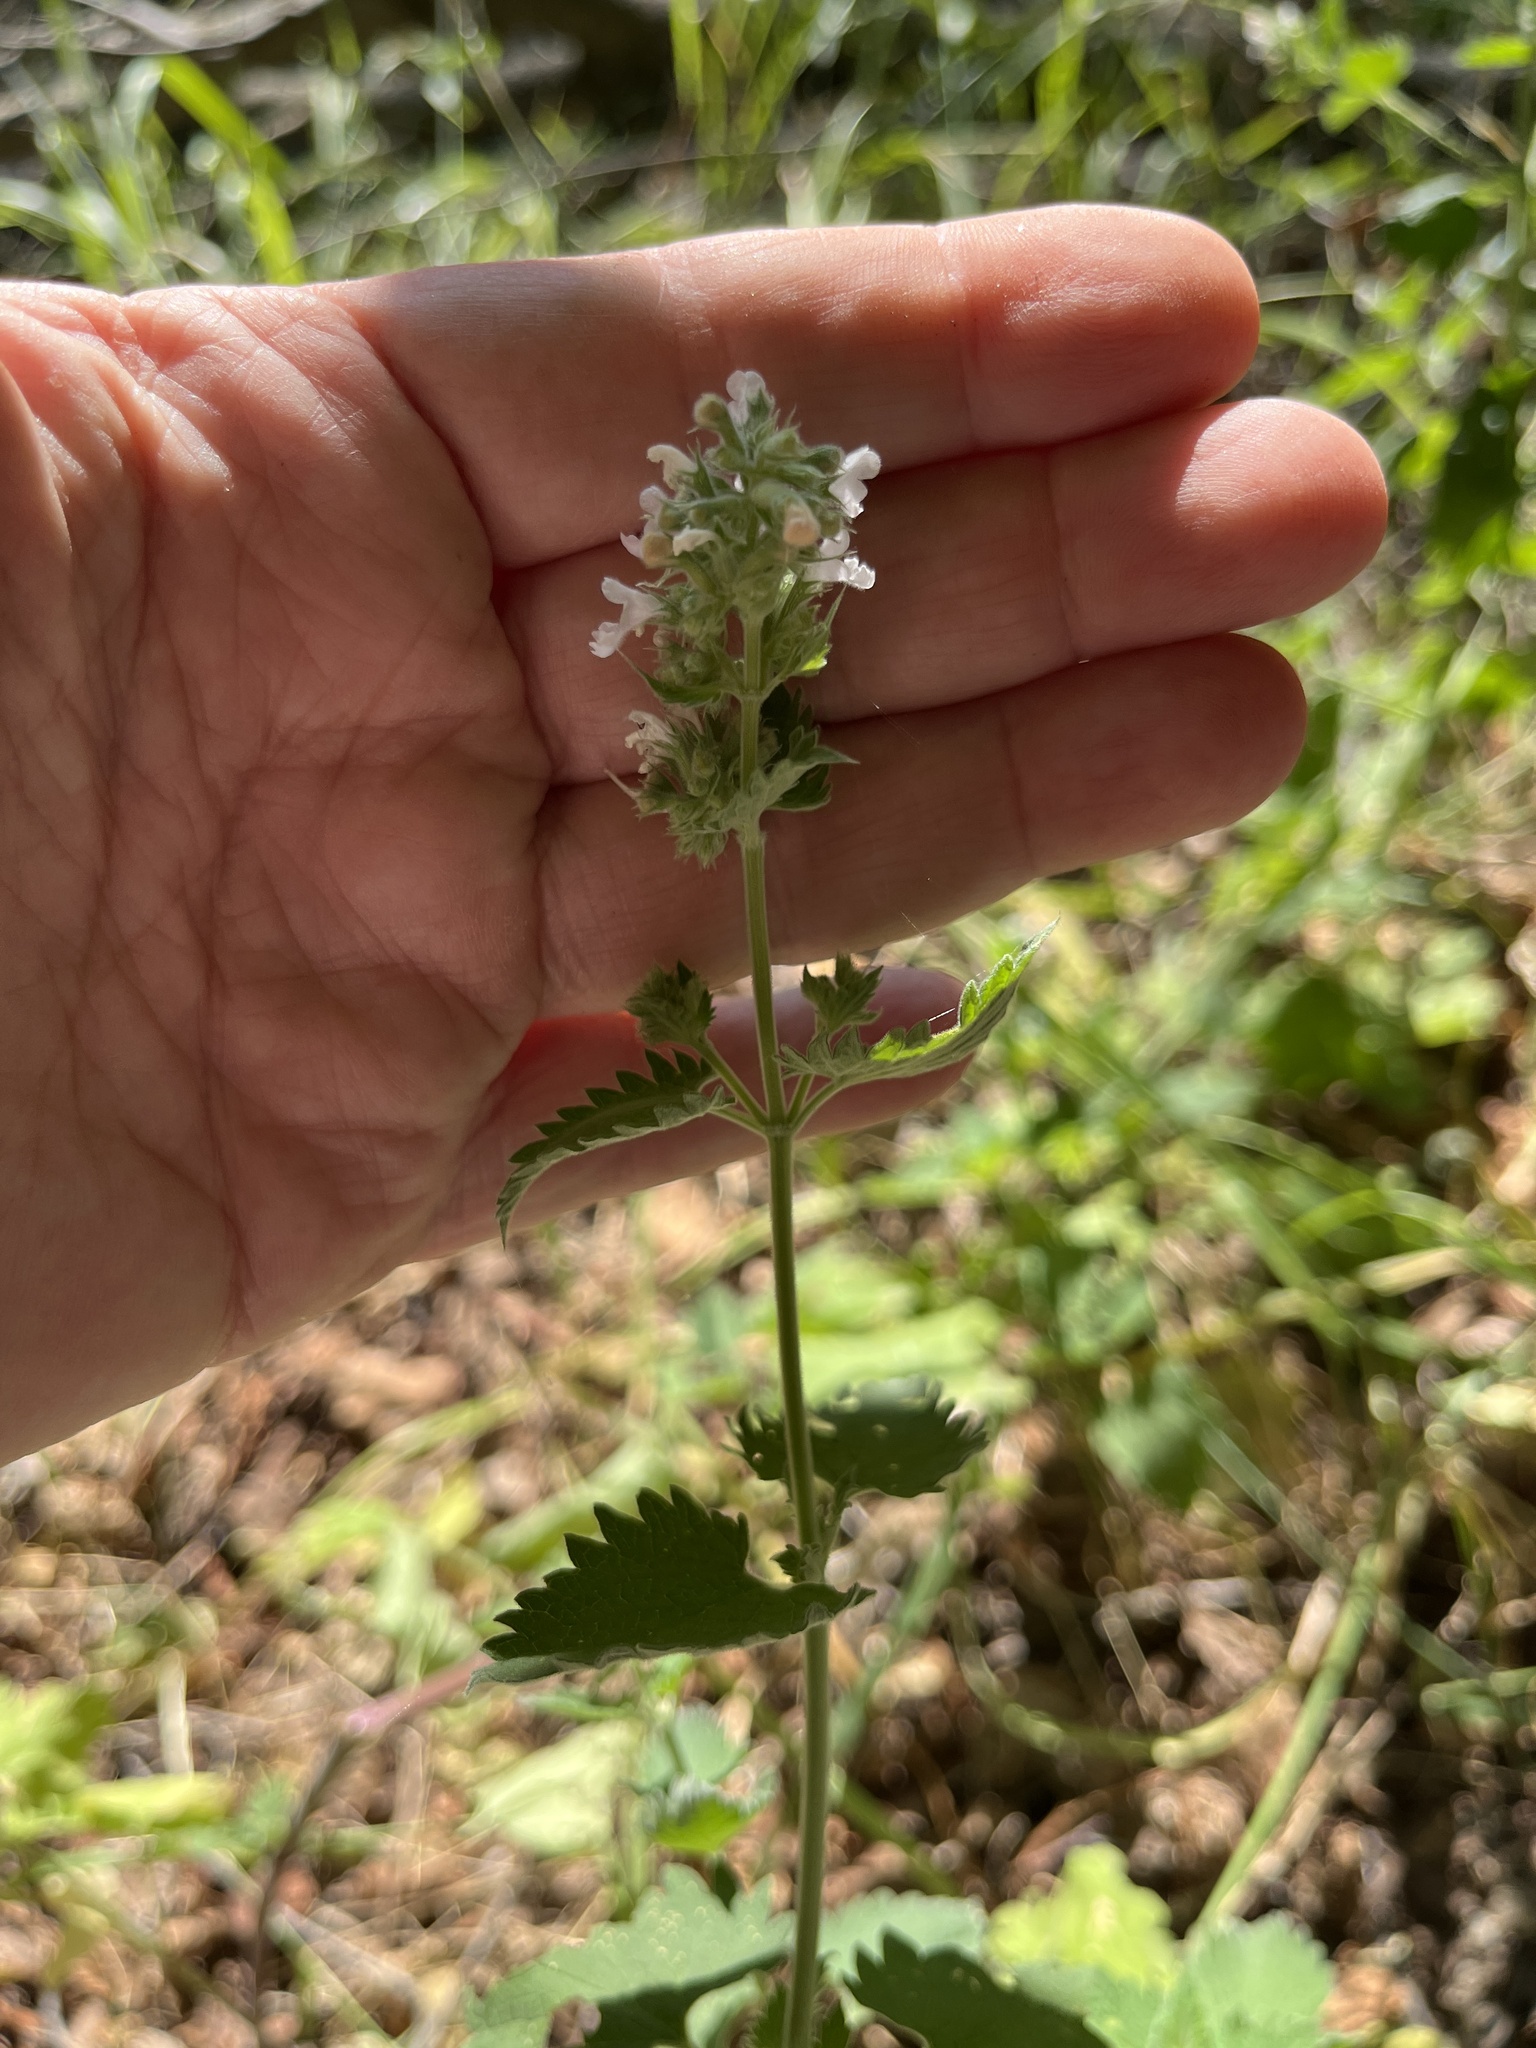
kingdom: Plantae
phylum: Tracheophyta
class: Magnoliopsida
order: Lamiales
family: Lamiaceae
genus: Nepeta
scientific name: Nepeta cataria
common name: Catnip
